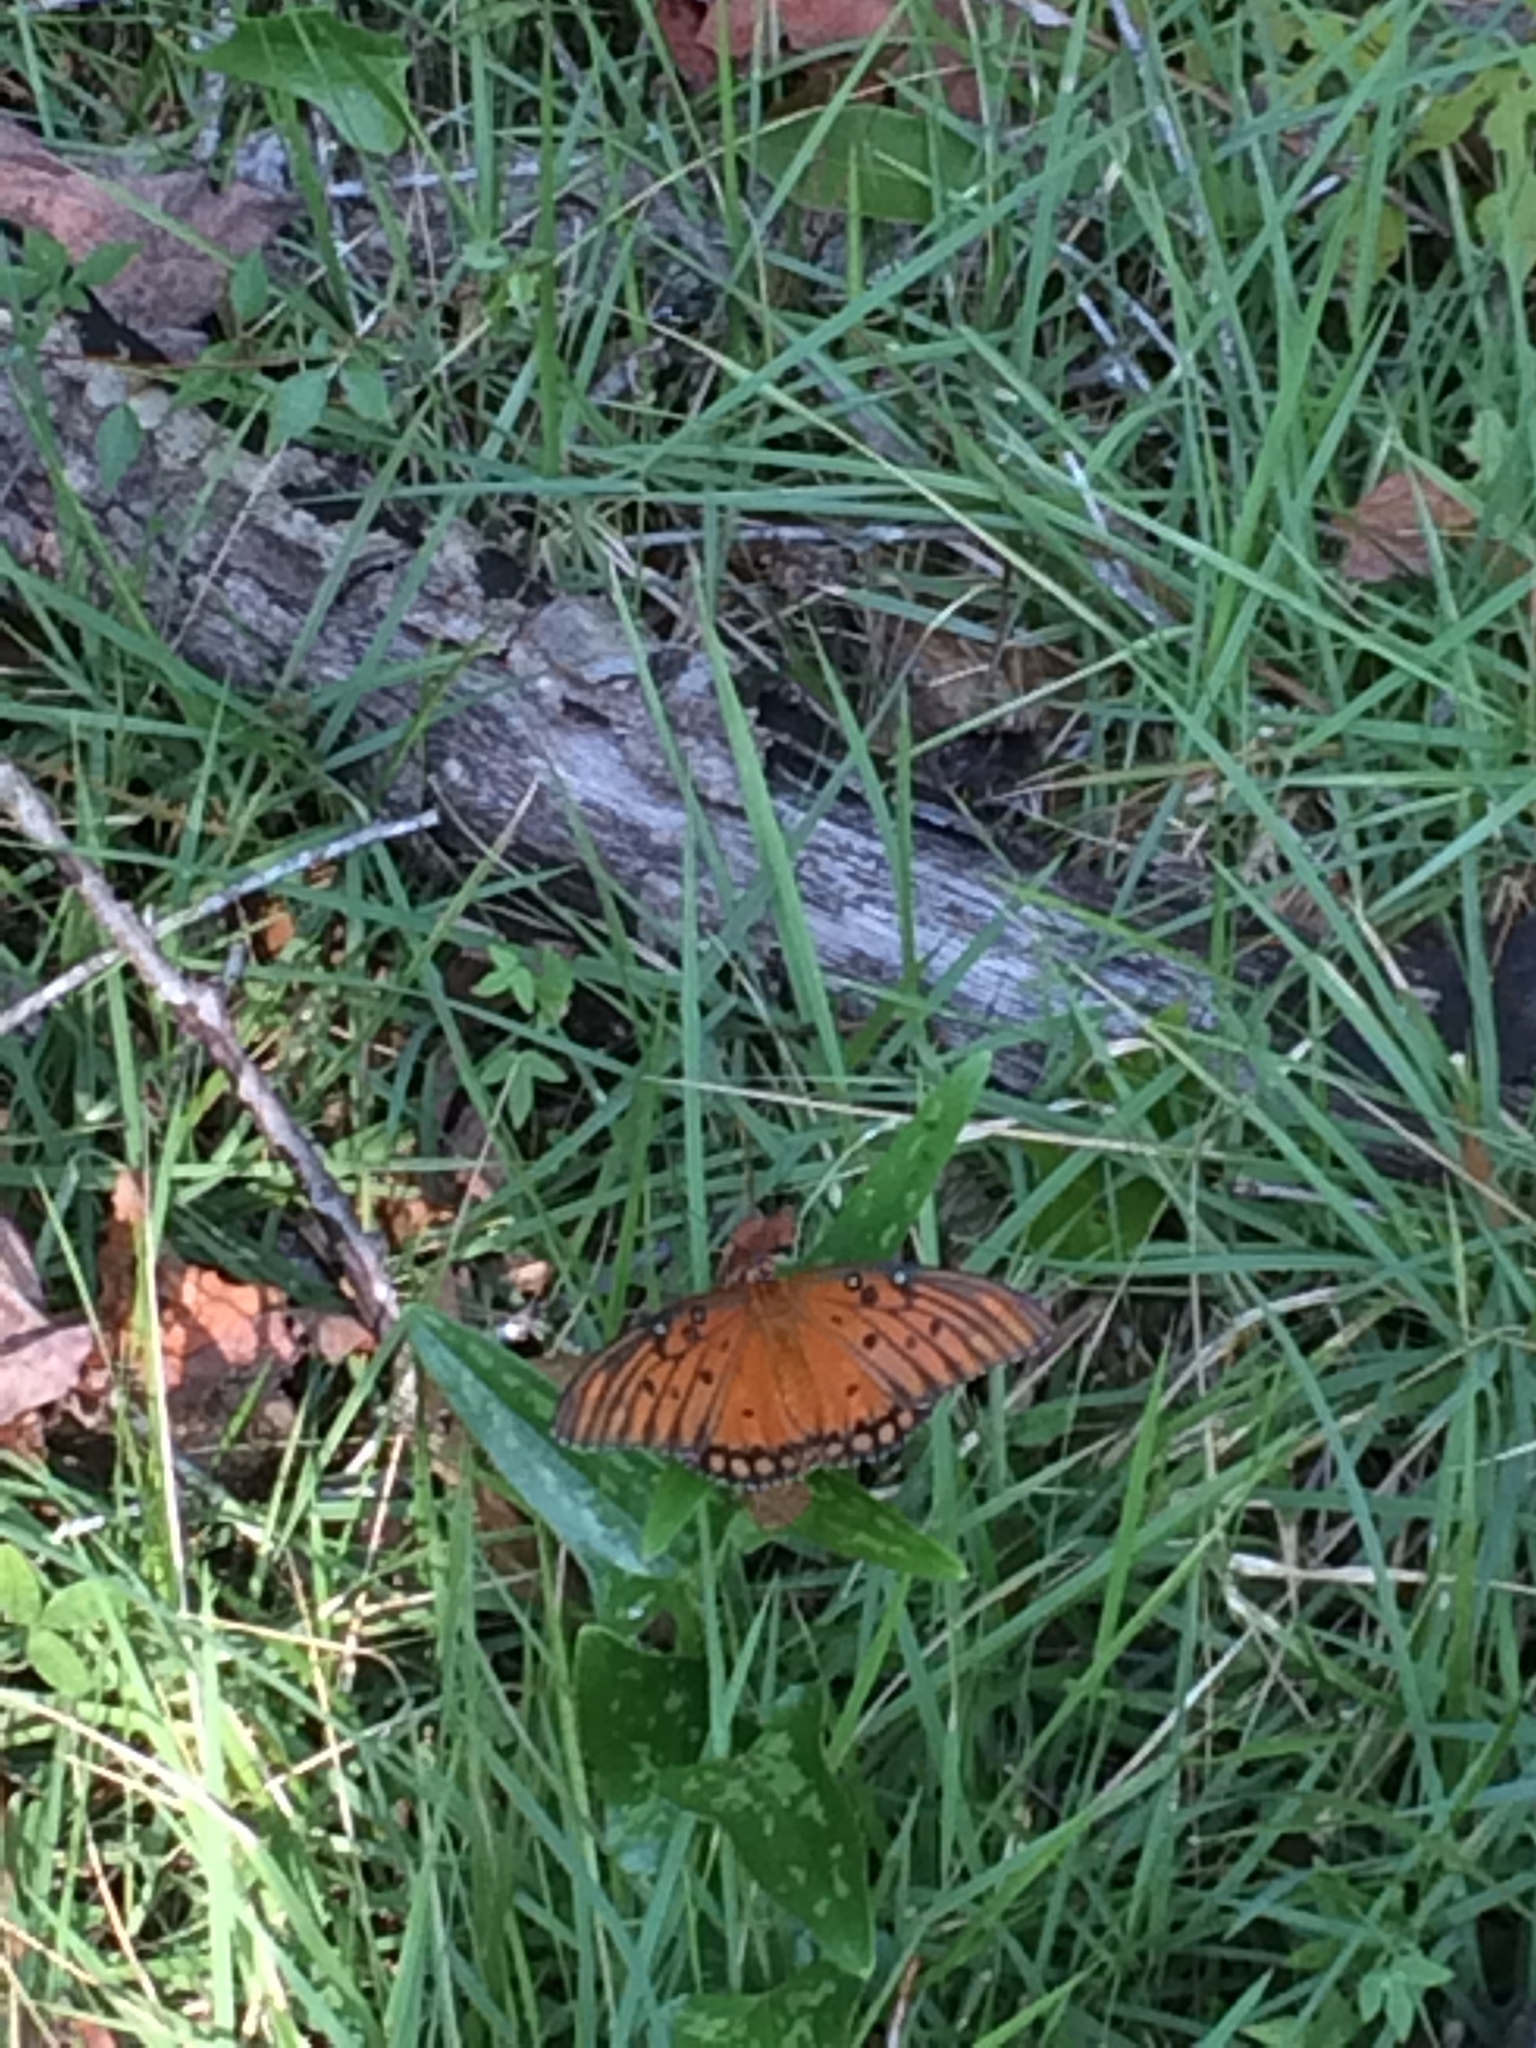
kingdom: Animalia
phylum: Arthropoda
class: Insecta
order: Lepidoptera
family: Nymphalidae
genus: Dione
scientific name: Dione vanillae
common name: Gulf fritillary
